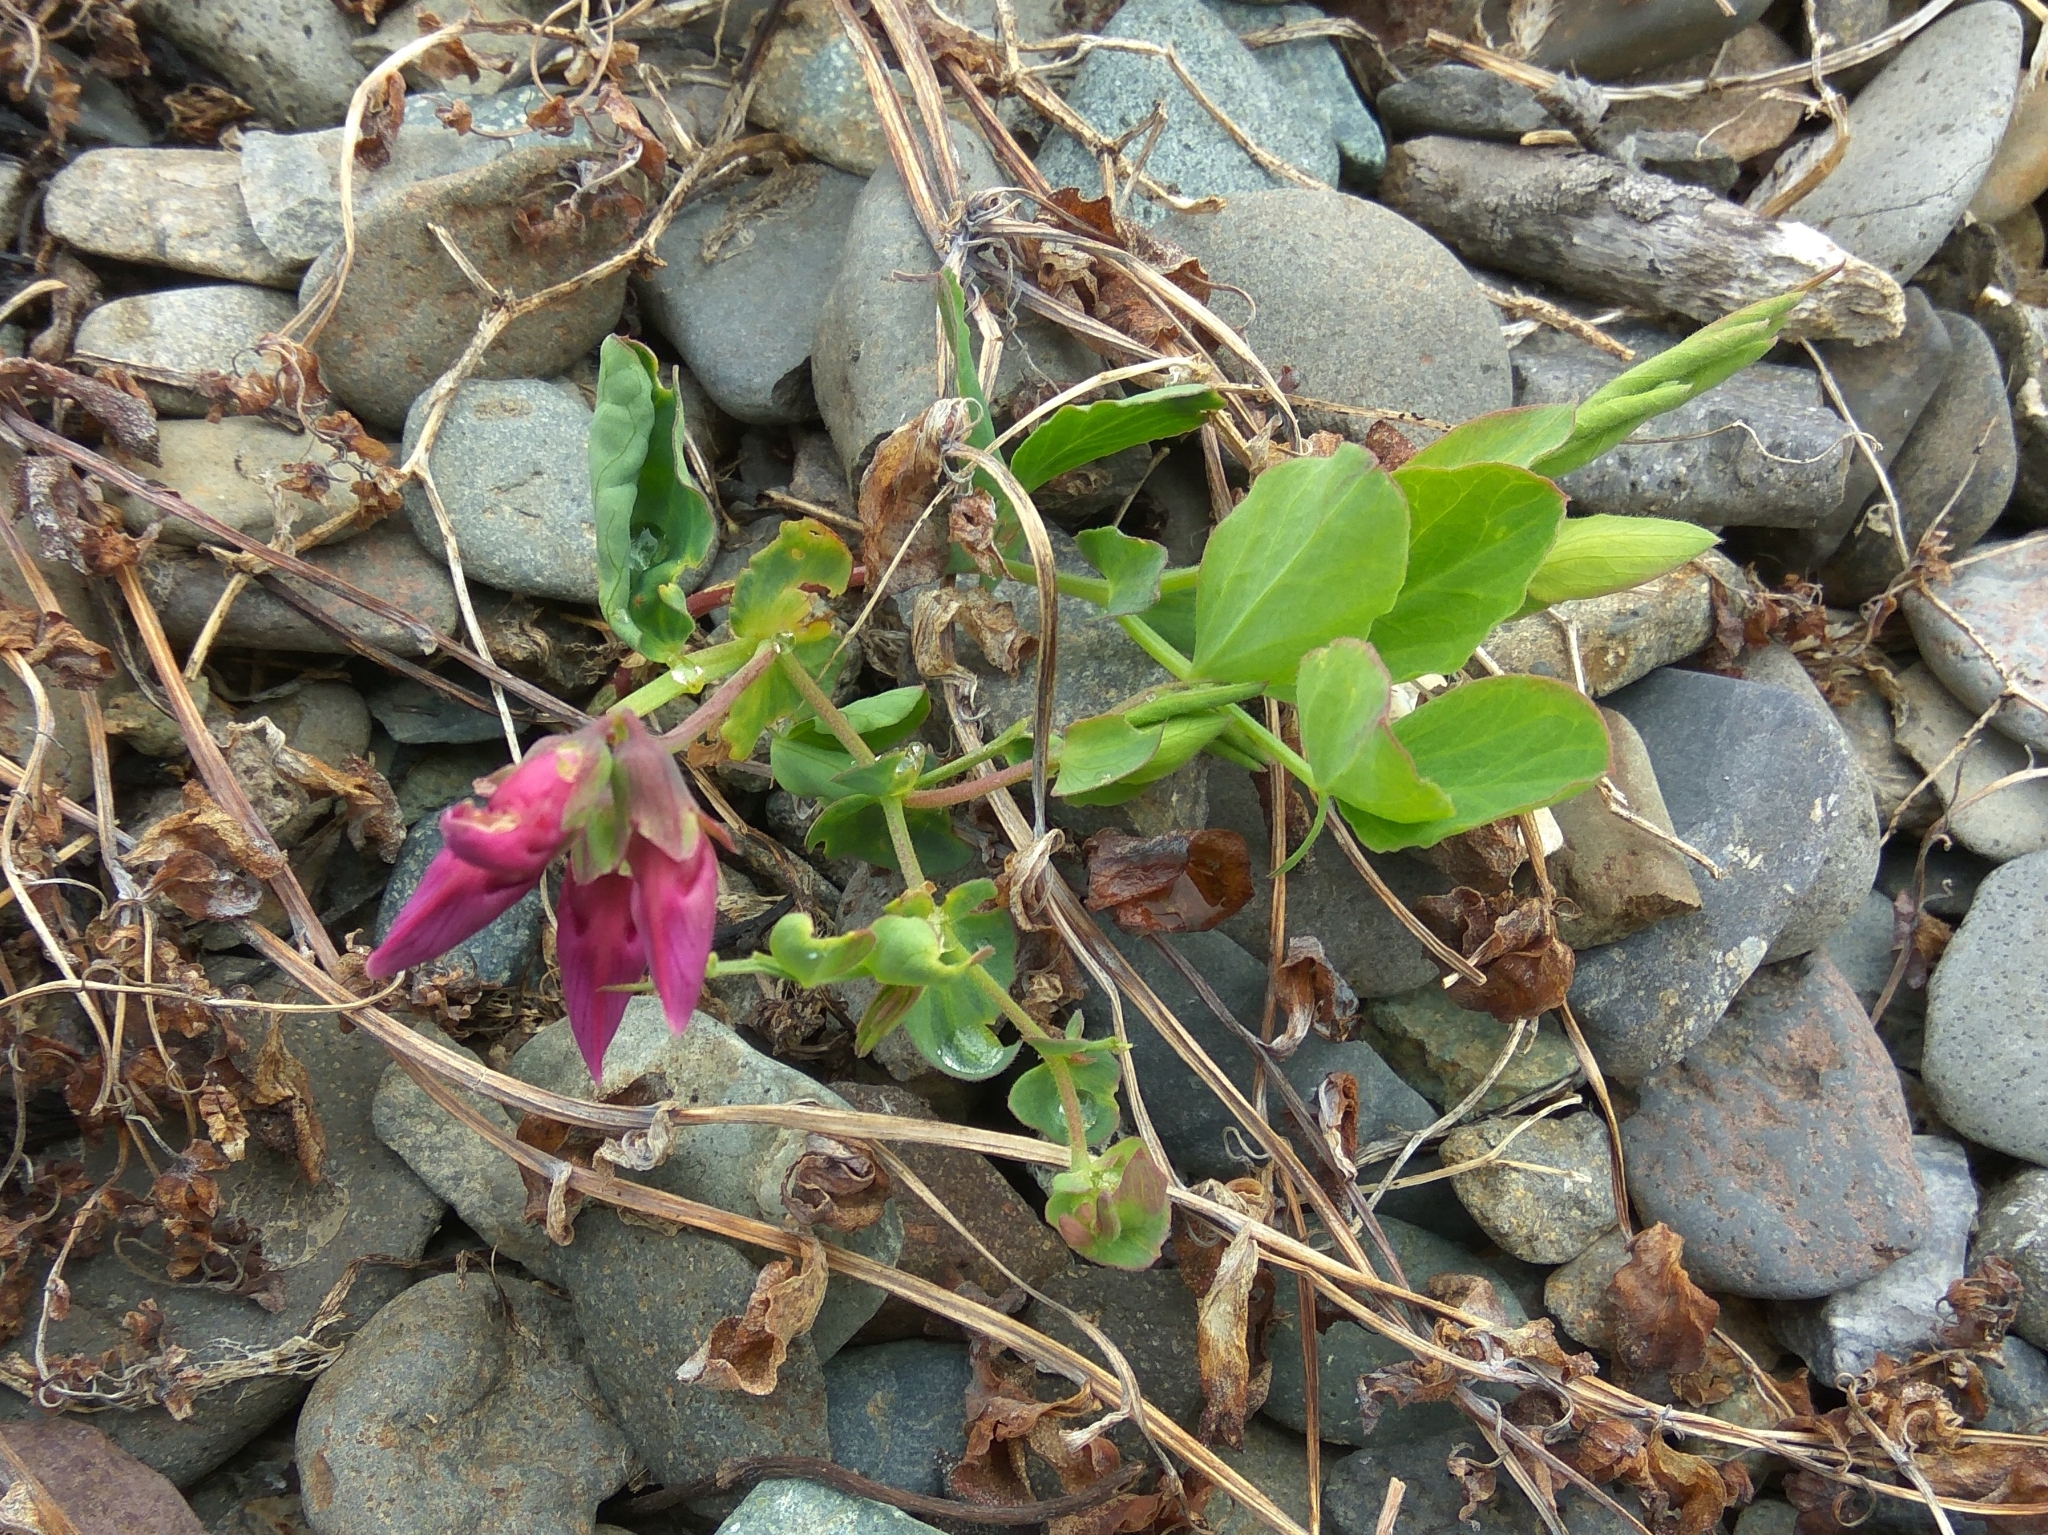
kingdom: Plantae
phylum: Tracheophyta
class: Magnoliopsida
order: Fabales
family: Fabaceae
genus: Lathyrus
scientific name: Lathyrus japonicus
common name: Sea pea
